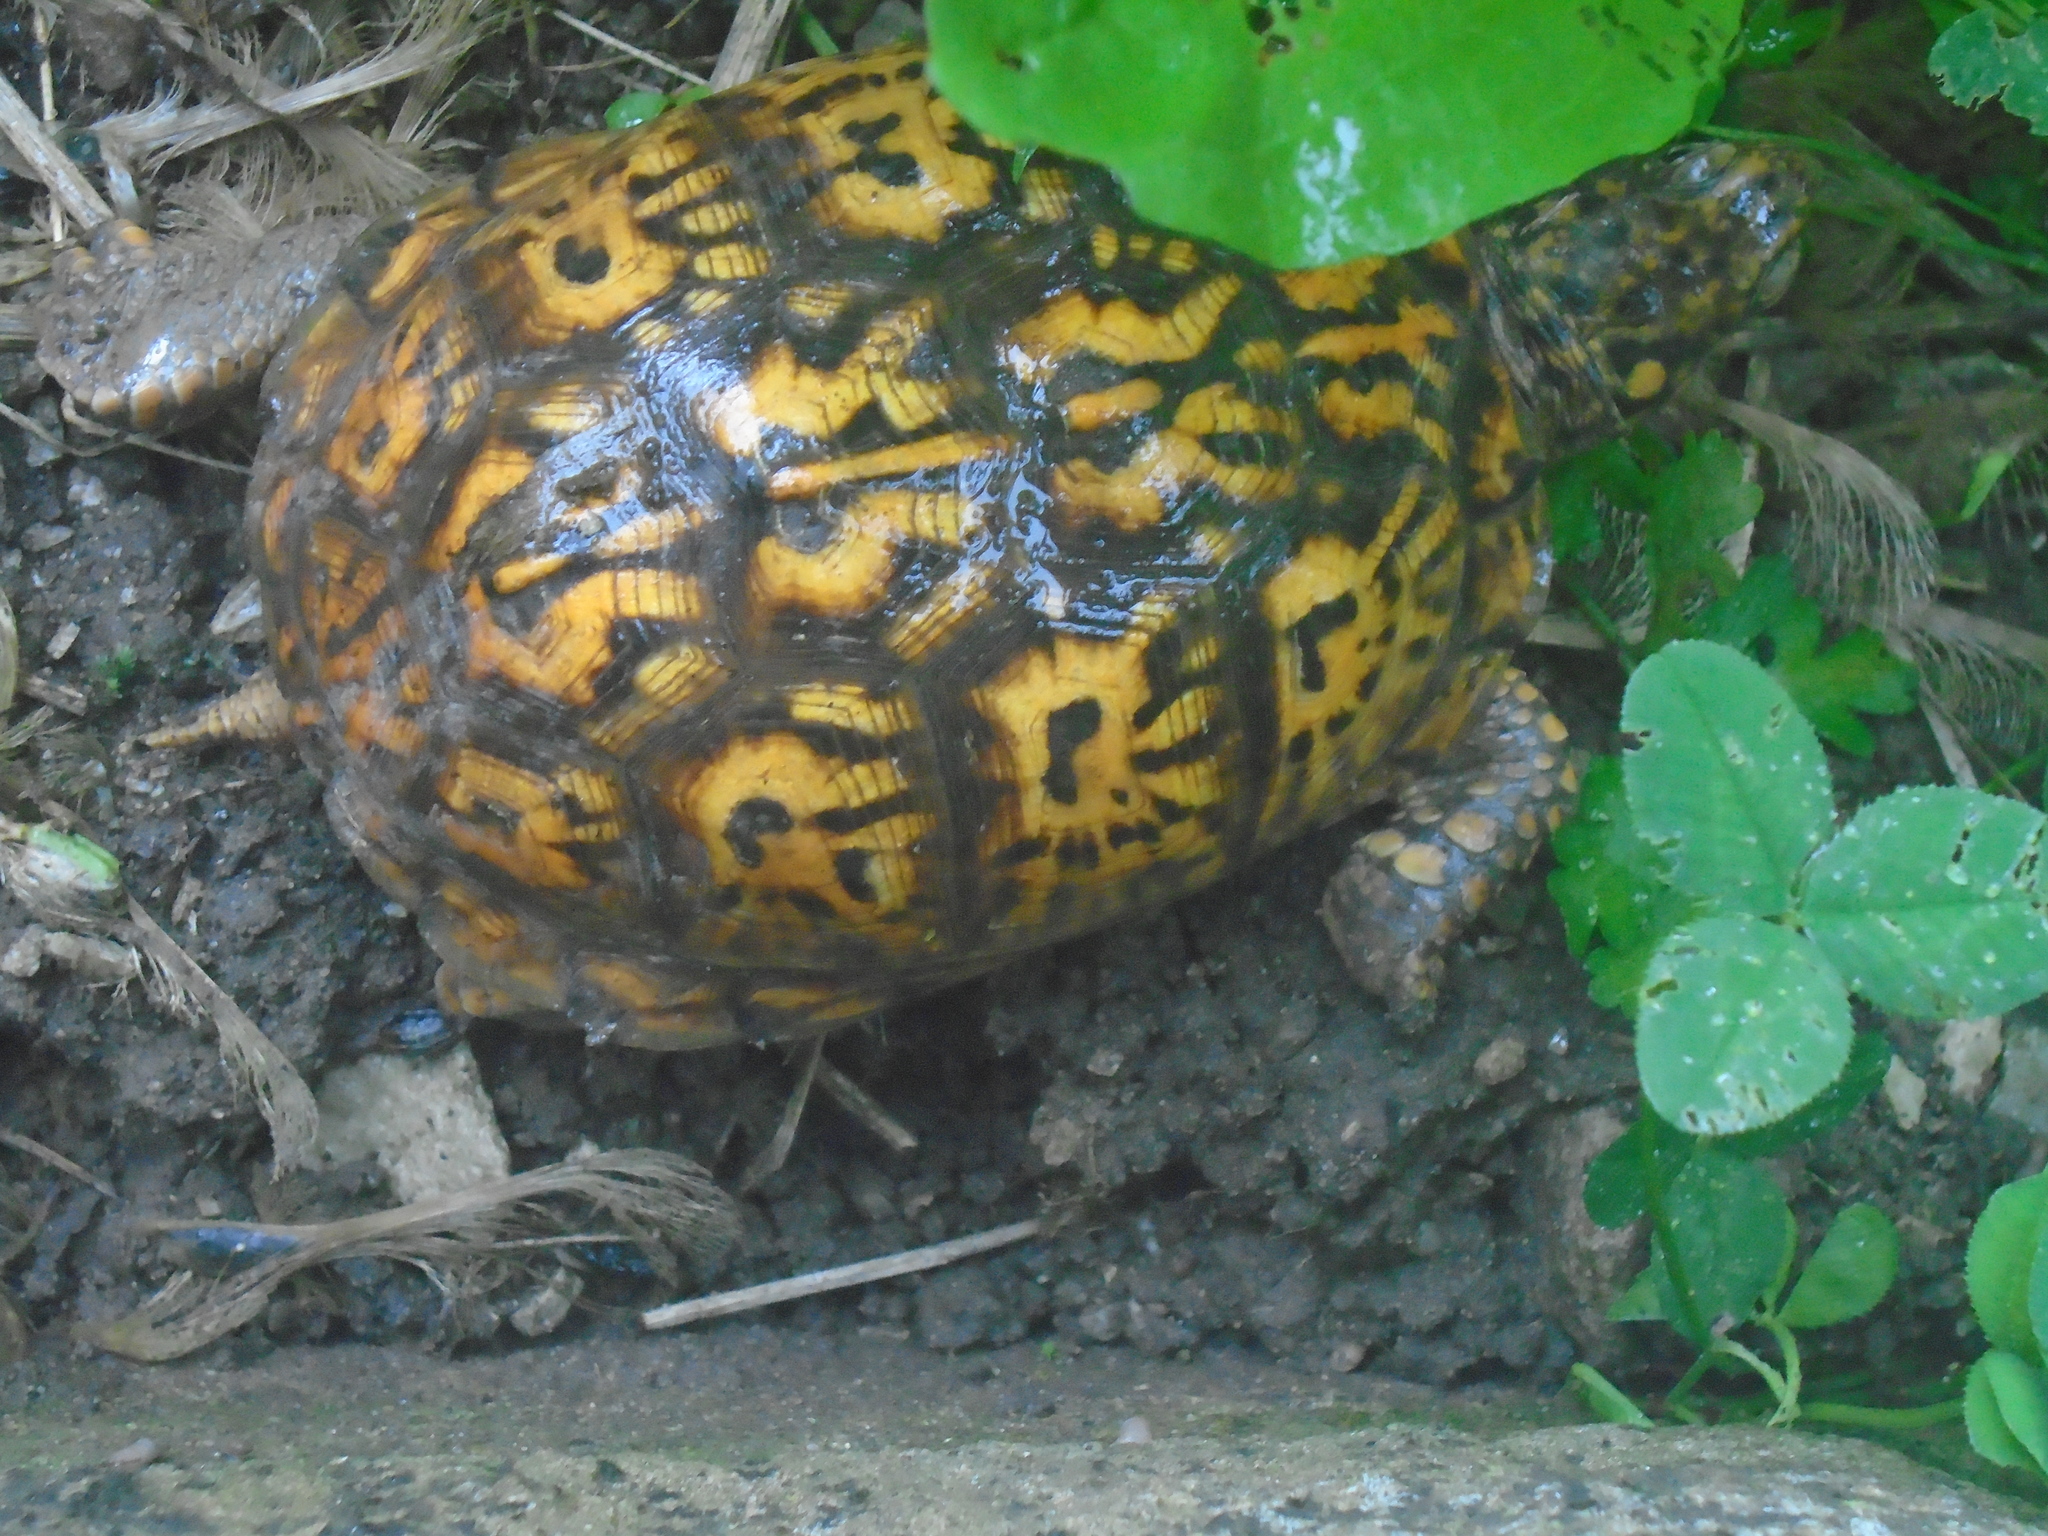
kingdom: Animalia
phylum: Chordata
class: Testudines
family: Emydidae
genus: Terrapene
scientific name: Terrapene carolina
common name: Common box turtle
